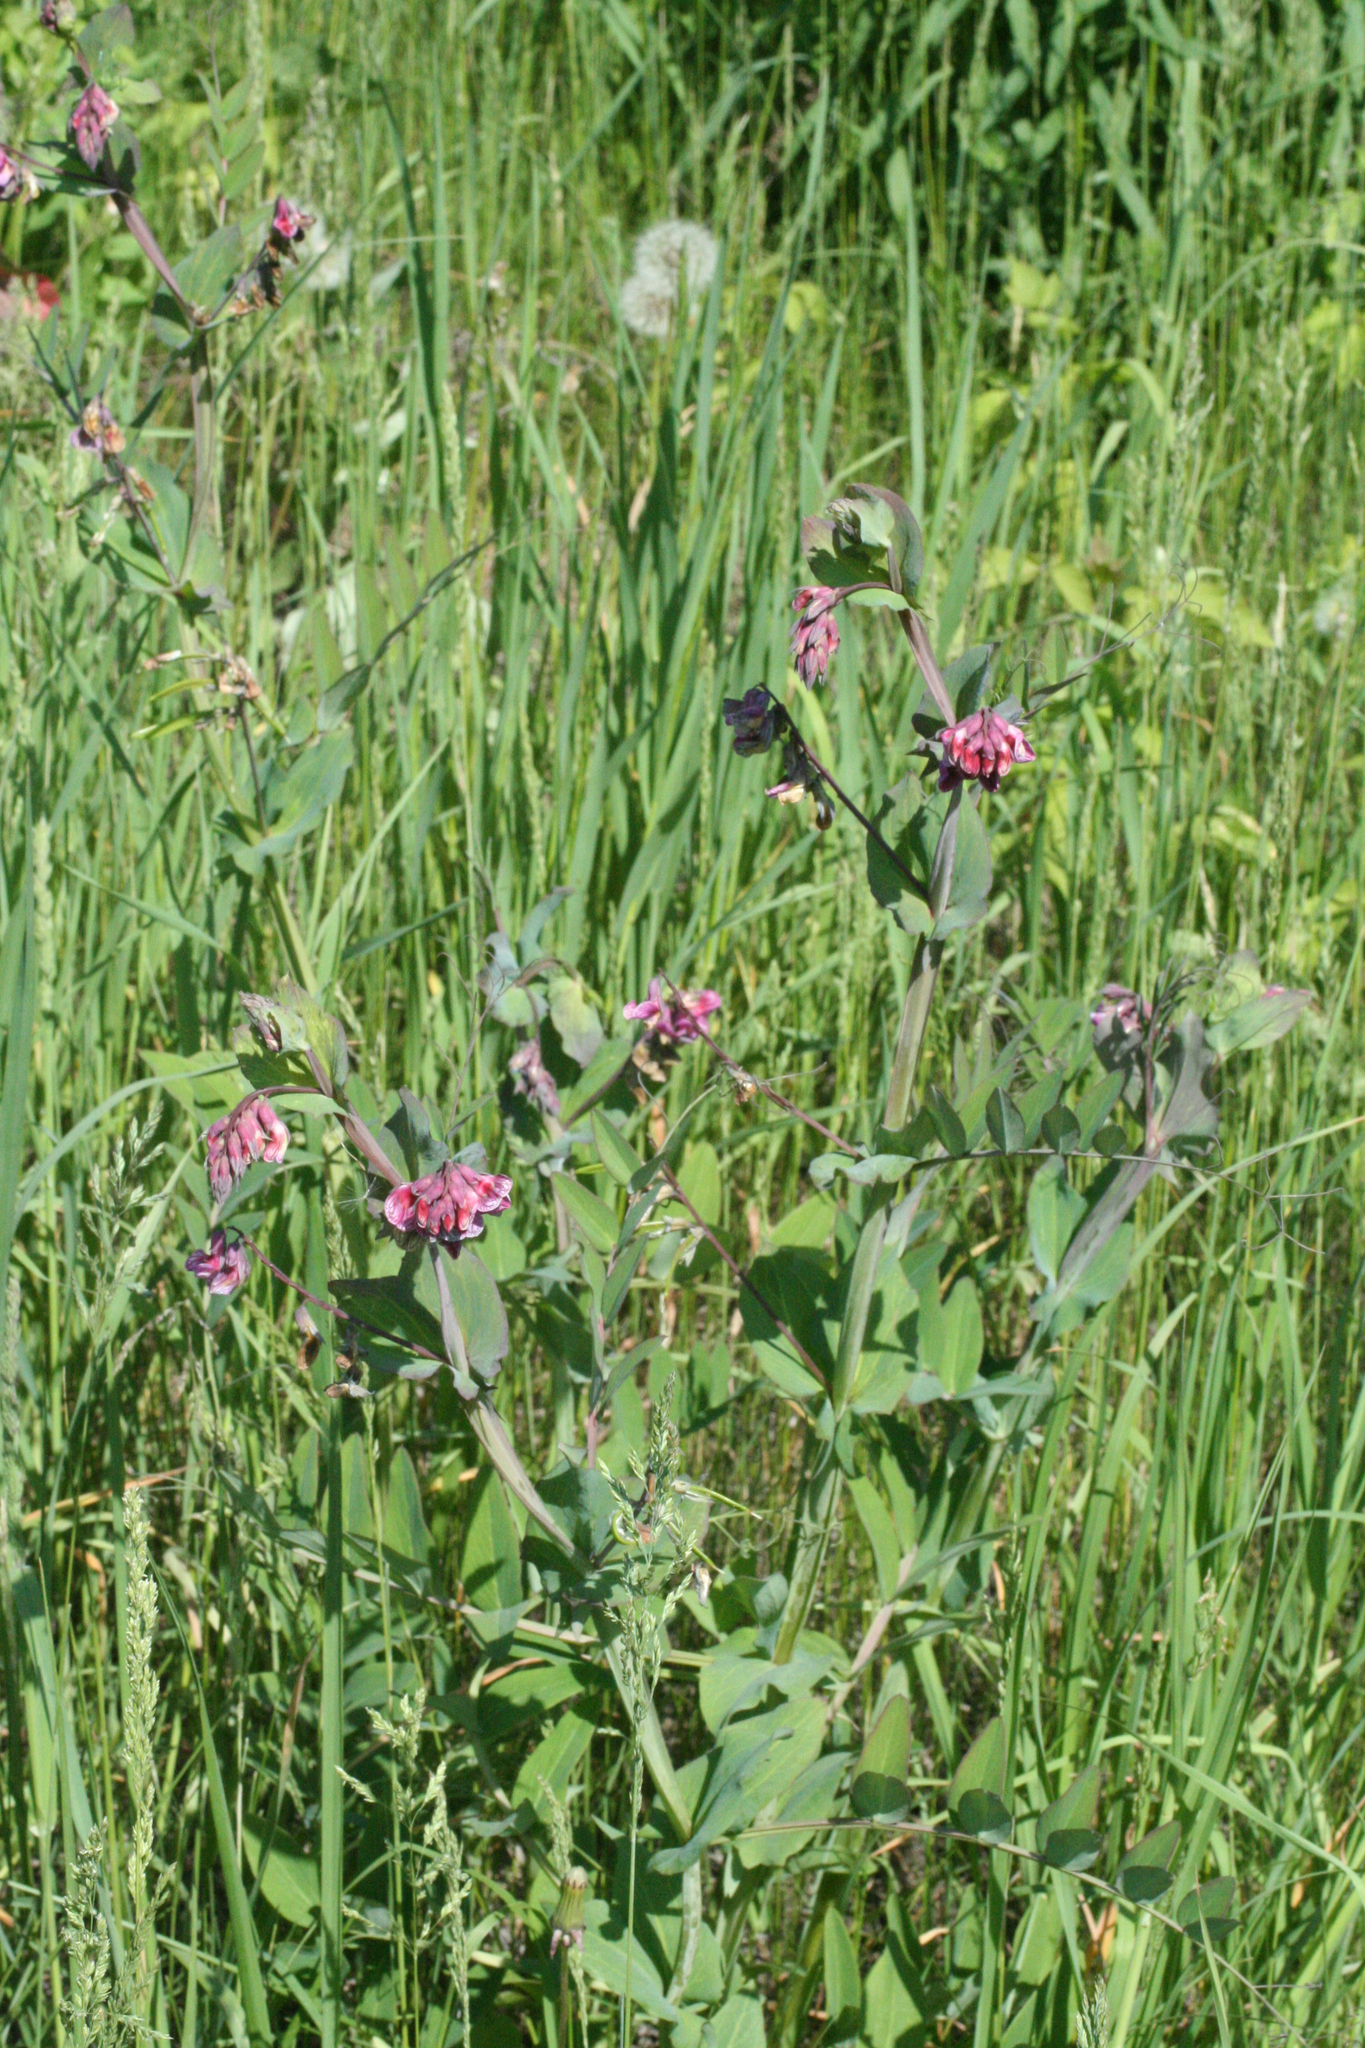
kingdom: Plantae
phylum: Tracheophyta
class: Magnoliopsida
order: Fabales
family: Fabaceae
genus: Lathyrus
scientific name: Lathyrus pisiformis
